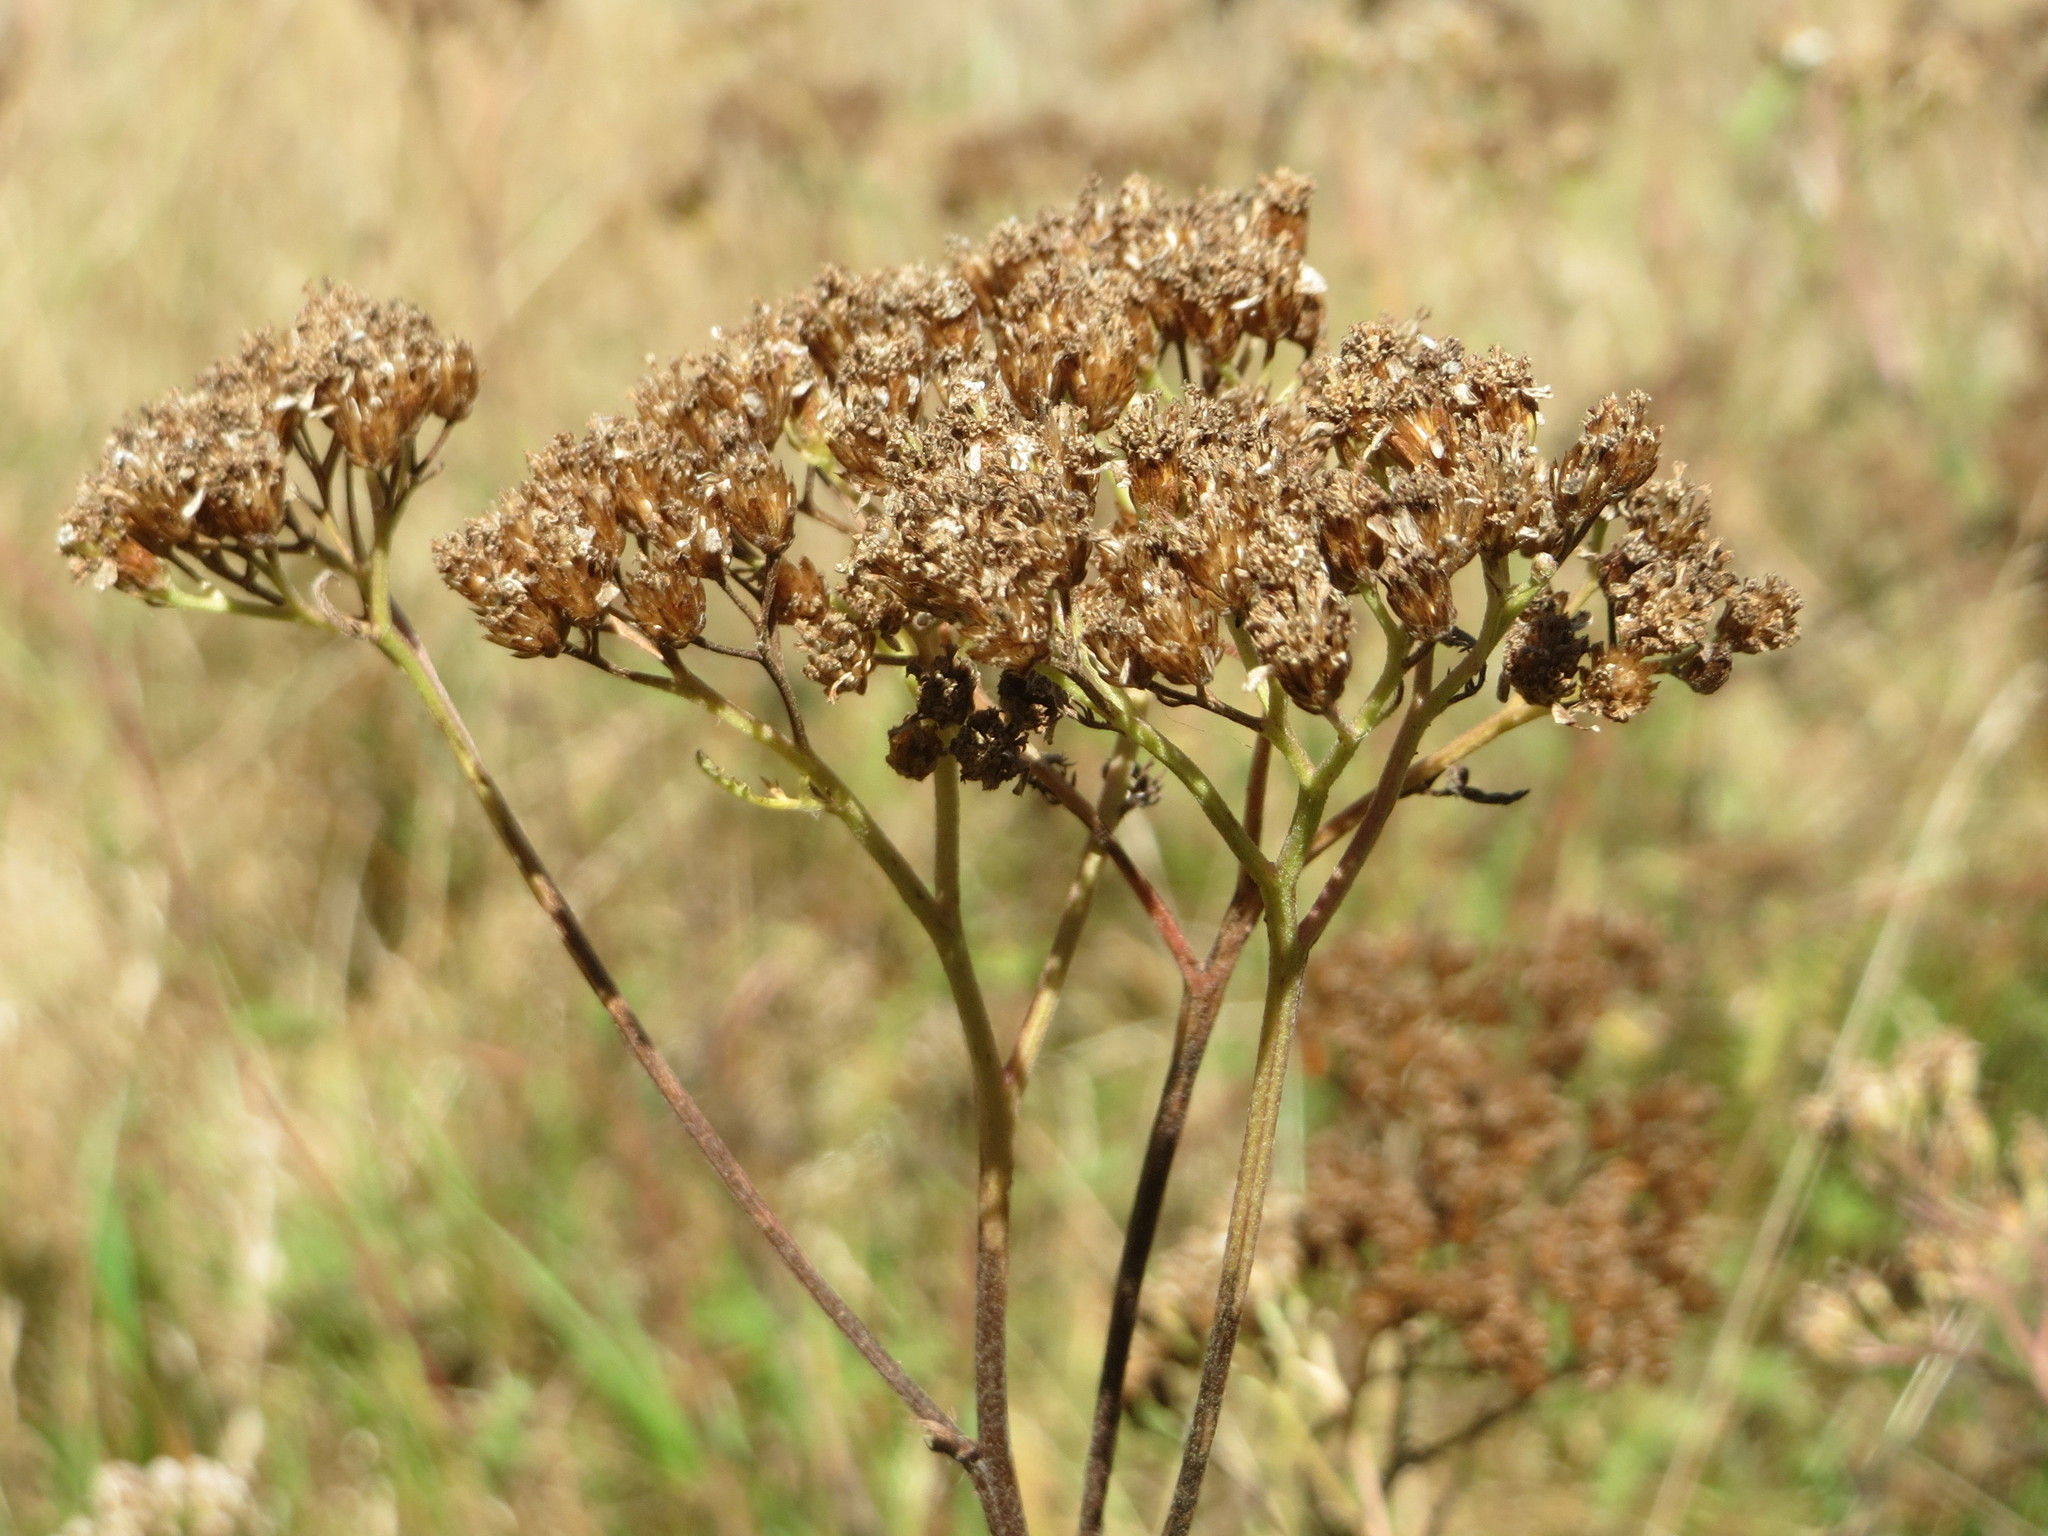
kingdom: Plantae
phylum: Tracheophyta
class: Magnoliopsida
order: Asterales
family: Asteraceae
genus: Achillea
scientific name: Achillea millefolium
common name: Yarrow
